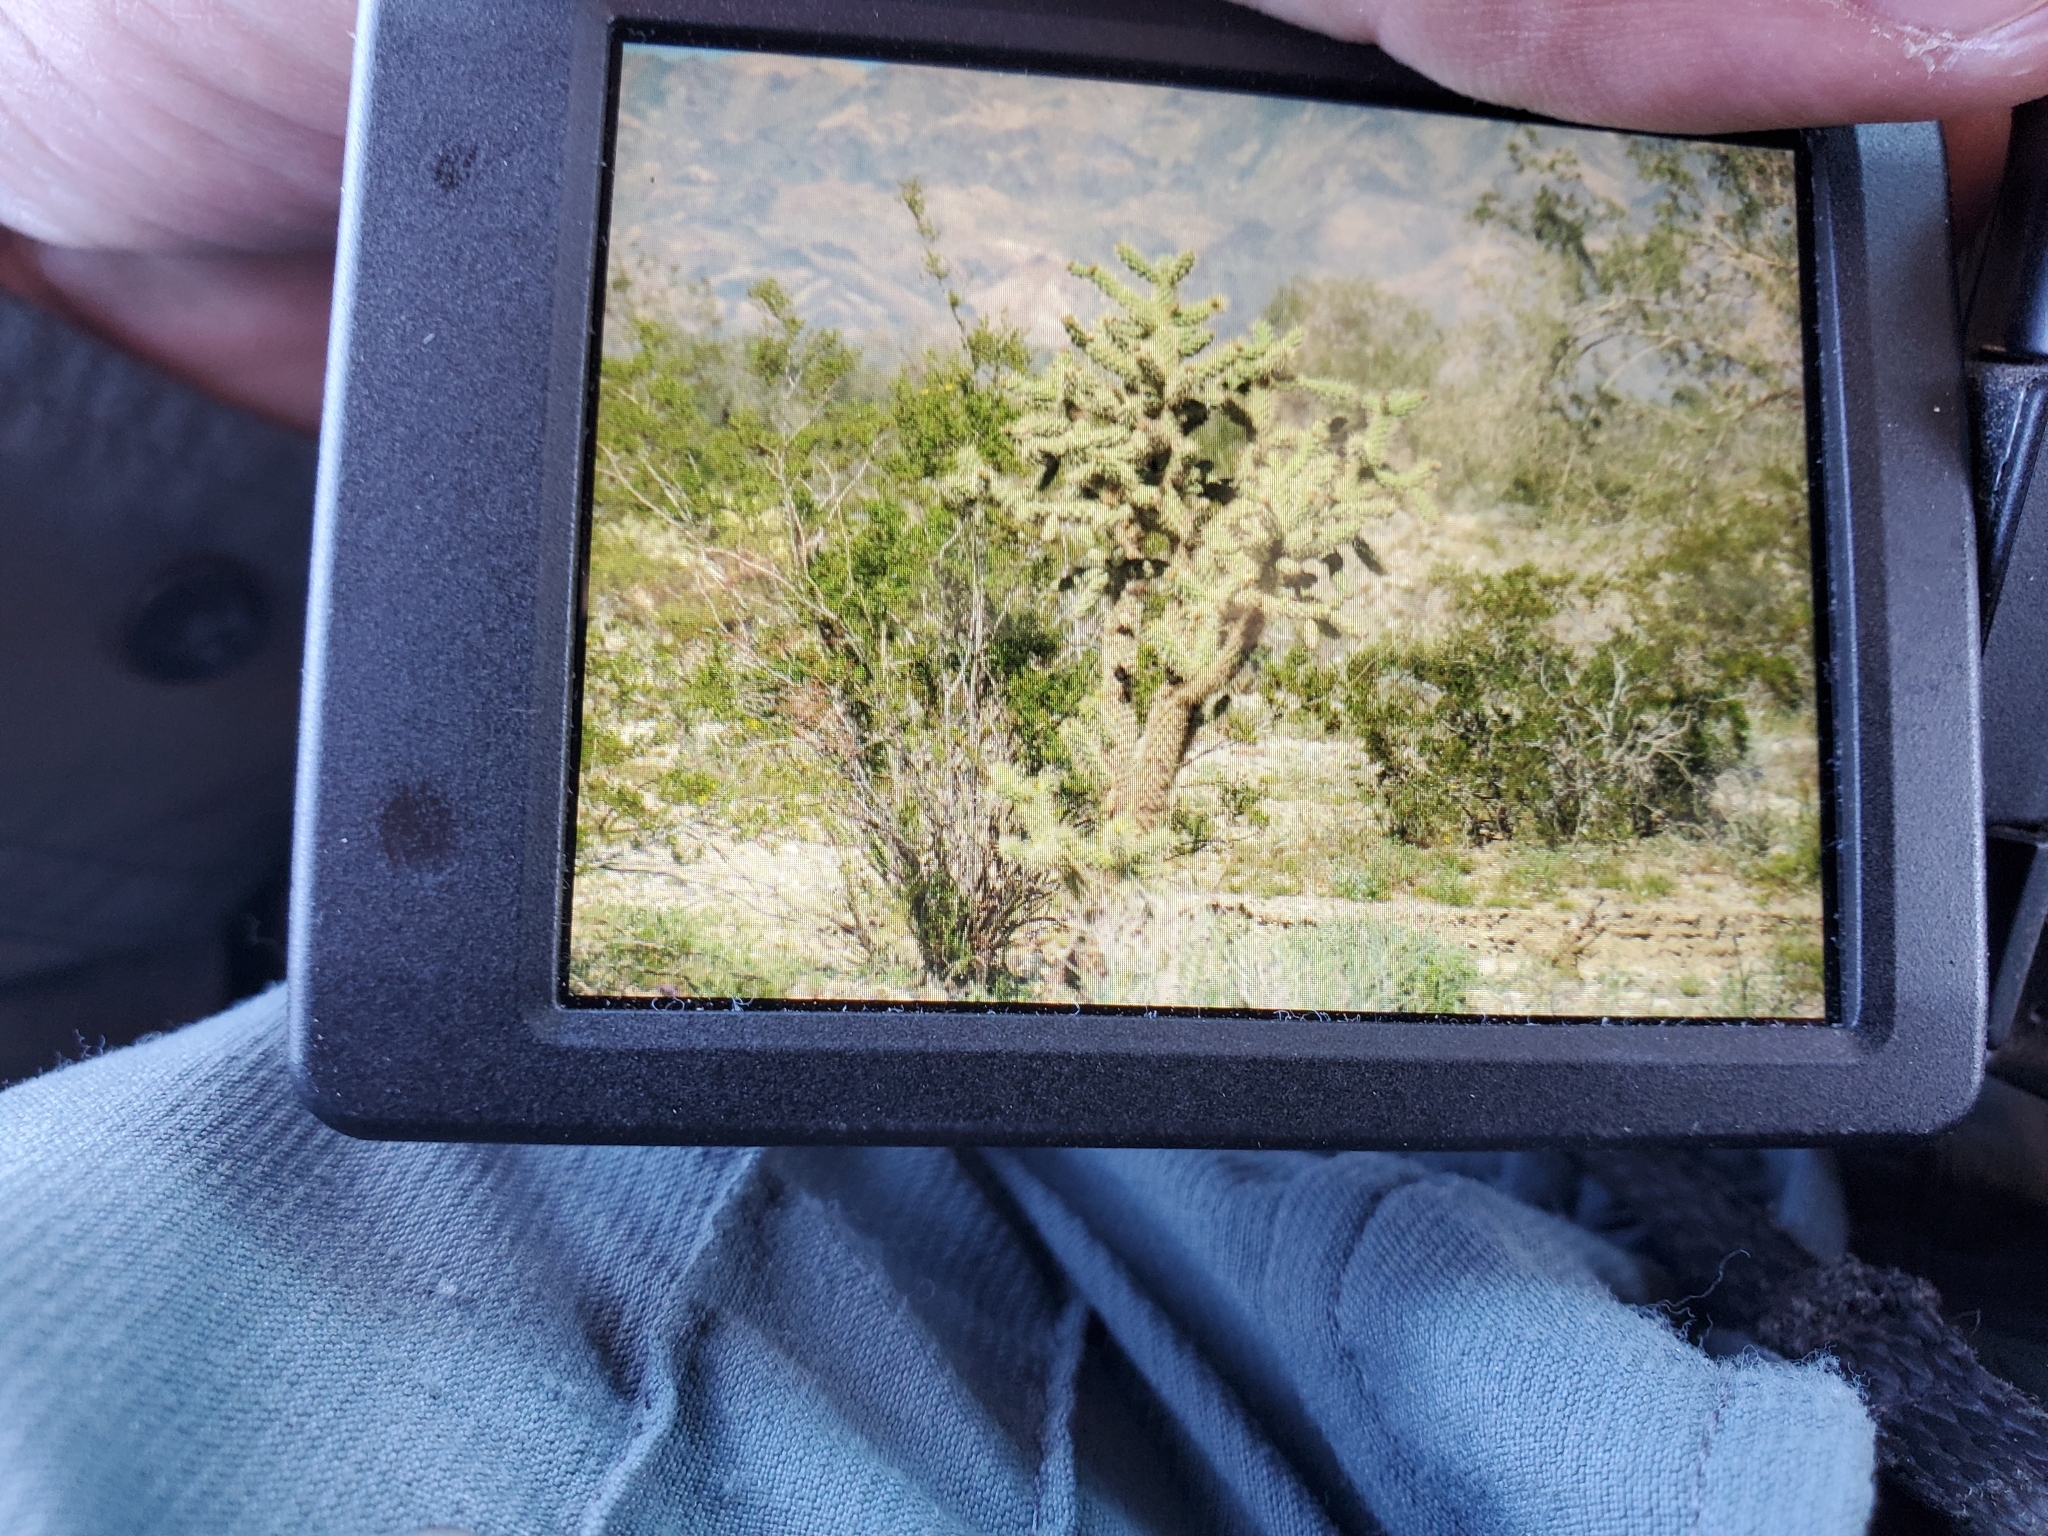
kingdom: Plantae
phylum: Tracheophyta
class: Magnoliopsida
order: Caryophyllales
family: Cactaceae
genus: Cylindropuntia
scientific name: Cylindropuntia munzii
